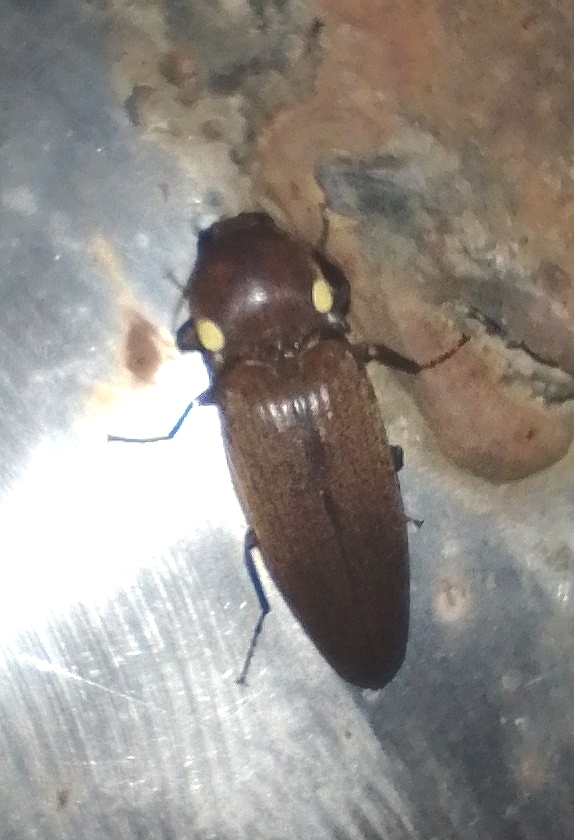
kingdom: Animalia
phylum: Arthropoda
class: Insecta
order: Coleoptera
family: Elateridae
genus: Pyrophorus
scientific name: Pyrophorus
